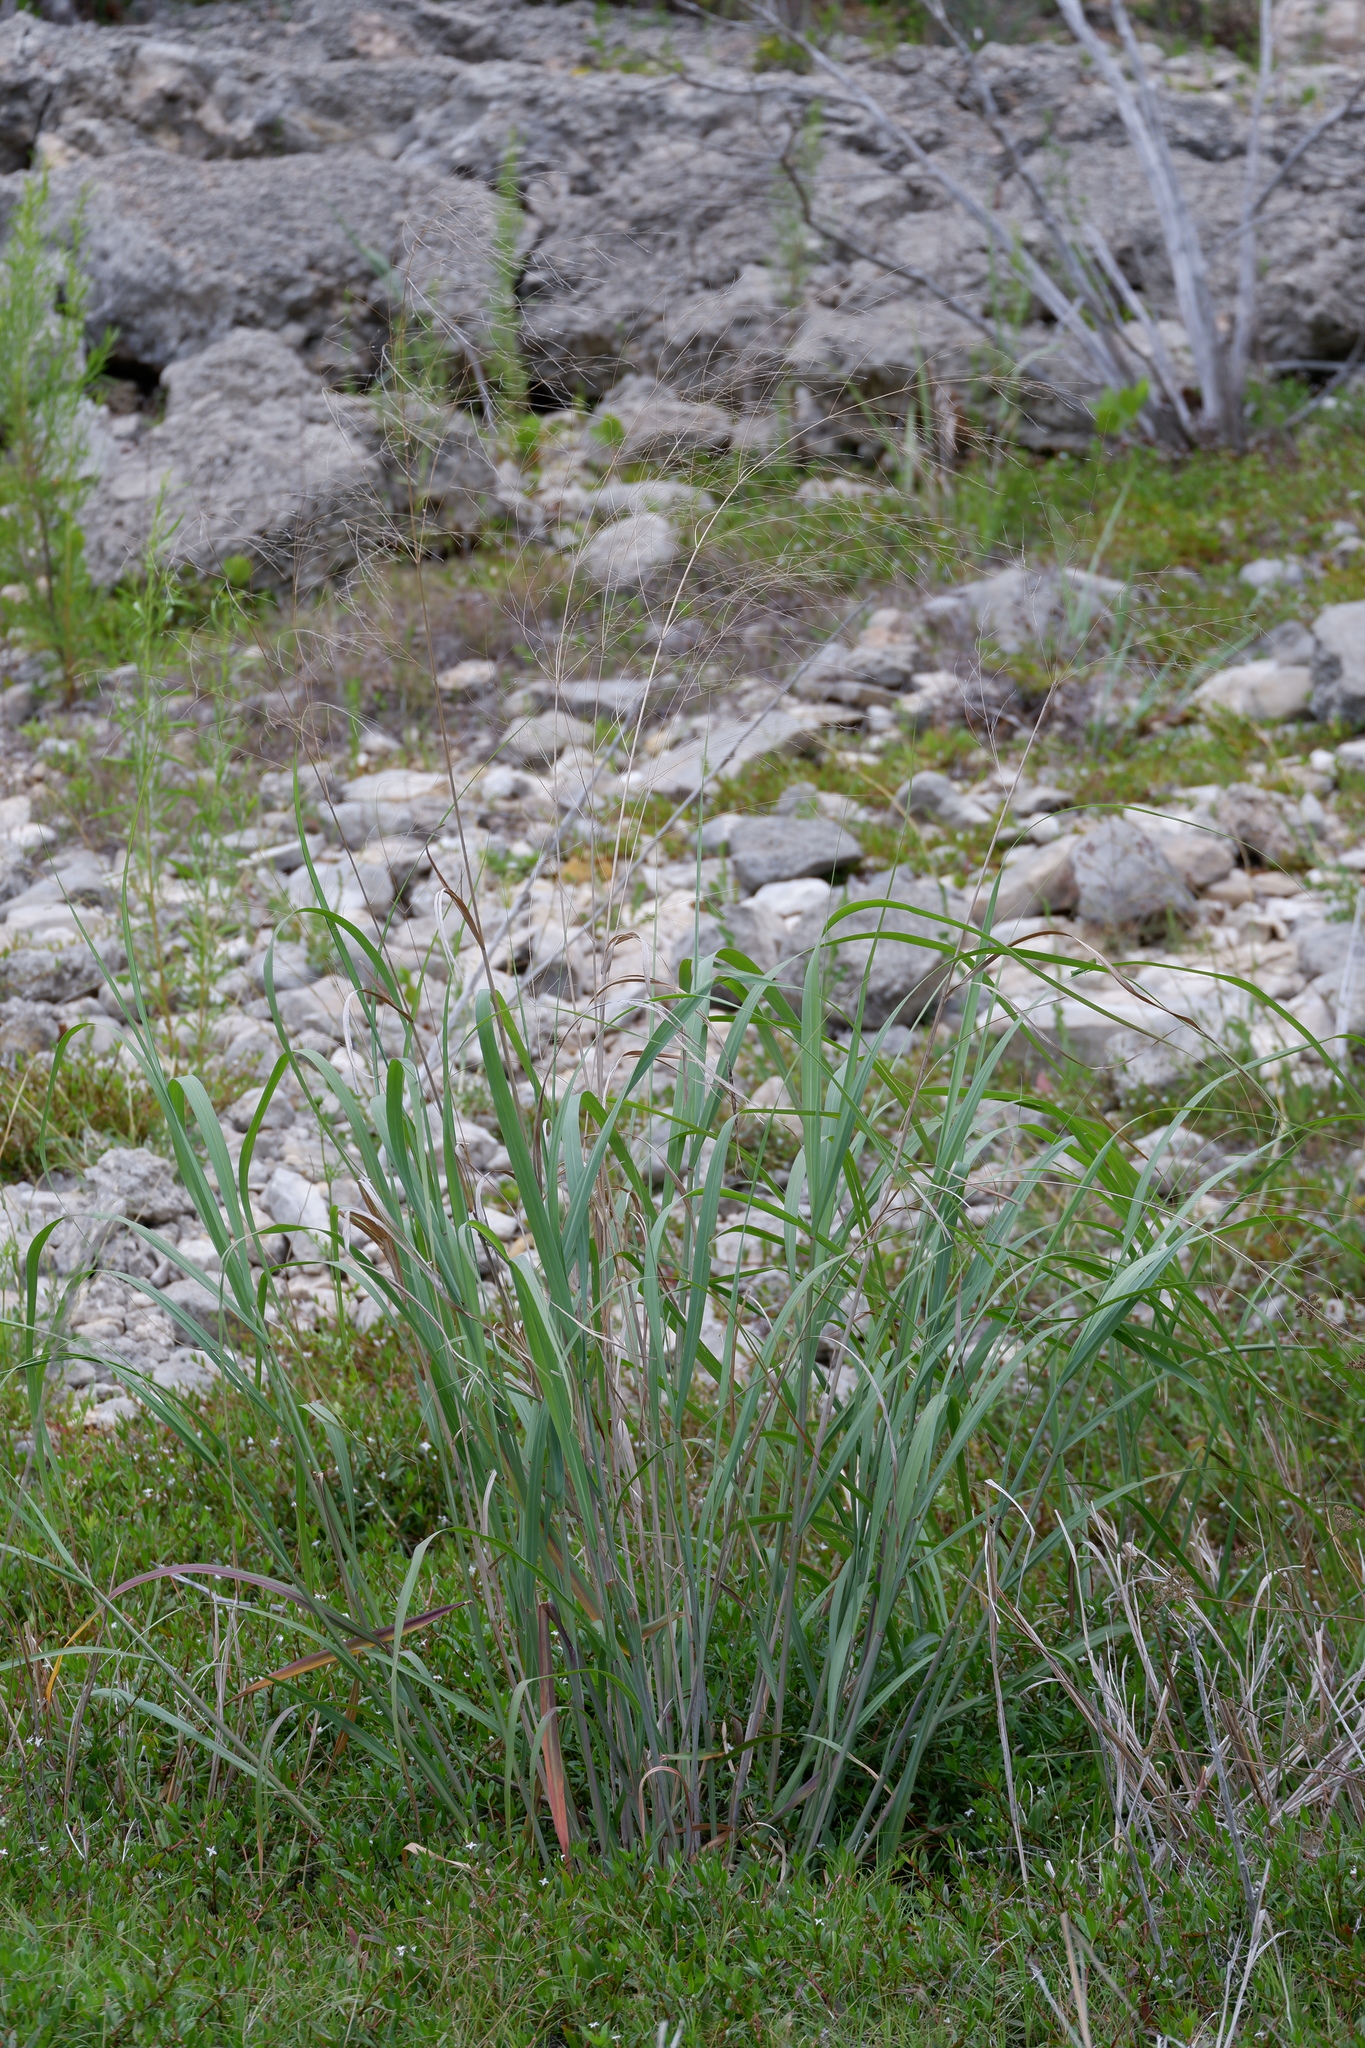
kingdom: Plantae
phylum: Tracheophyta
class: Liliopsida
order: Poales
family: Poaceae
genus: Panicum
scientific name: Panicum virgatum
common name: Switchgrass
